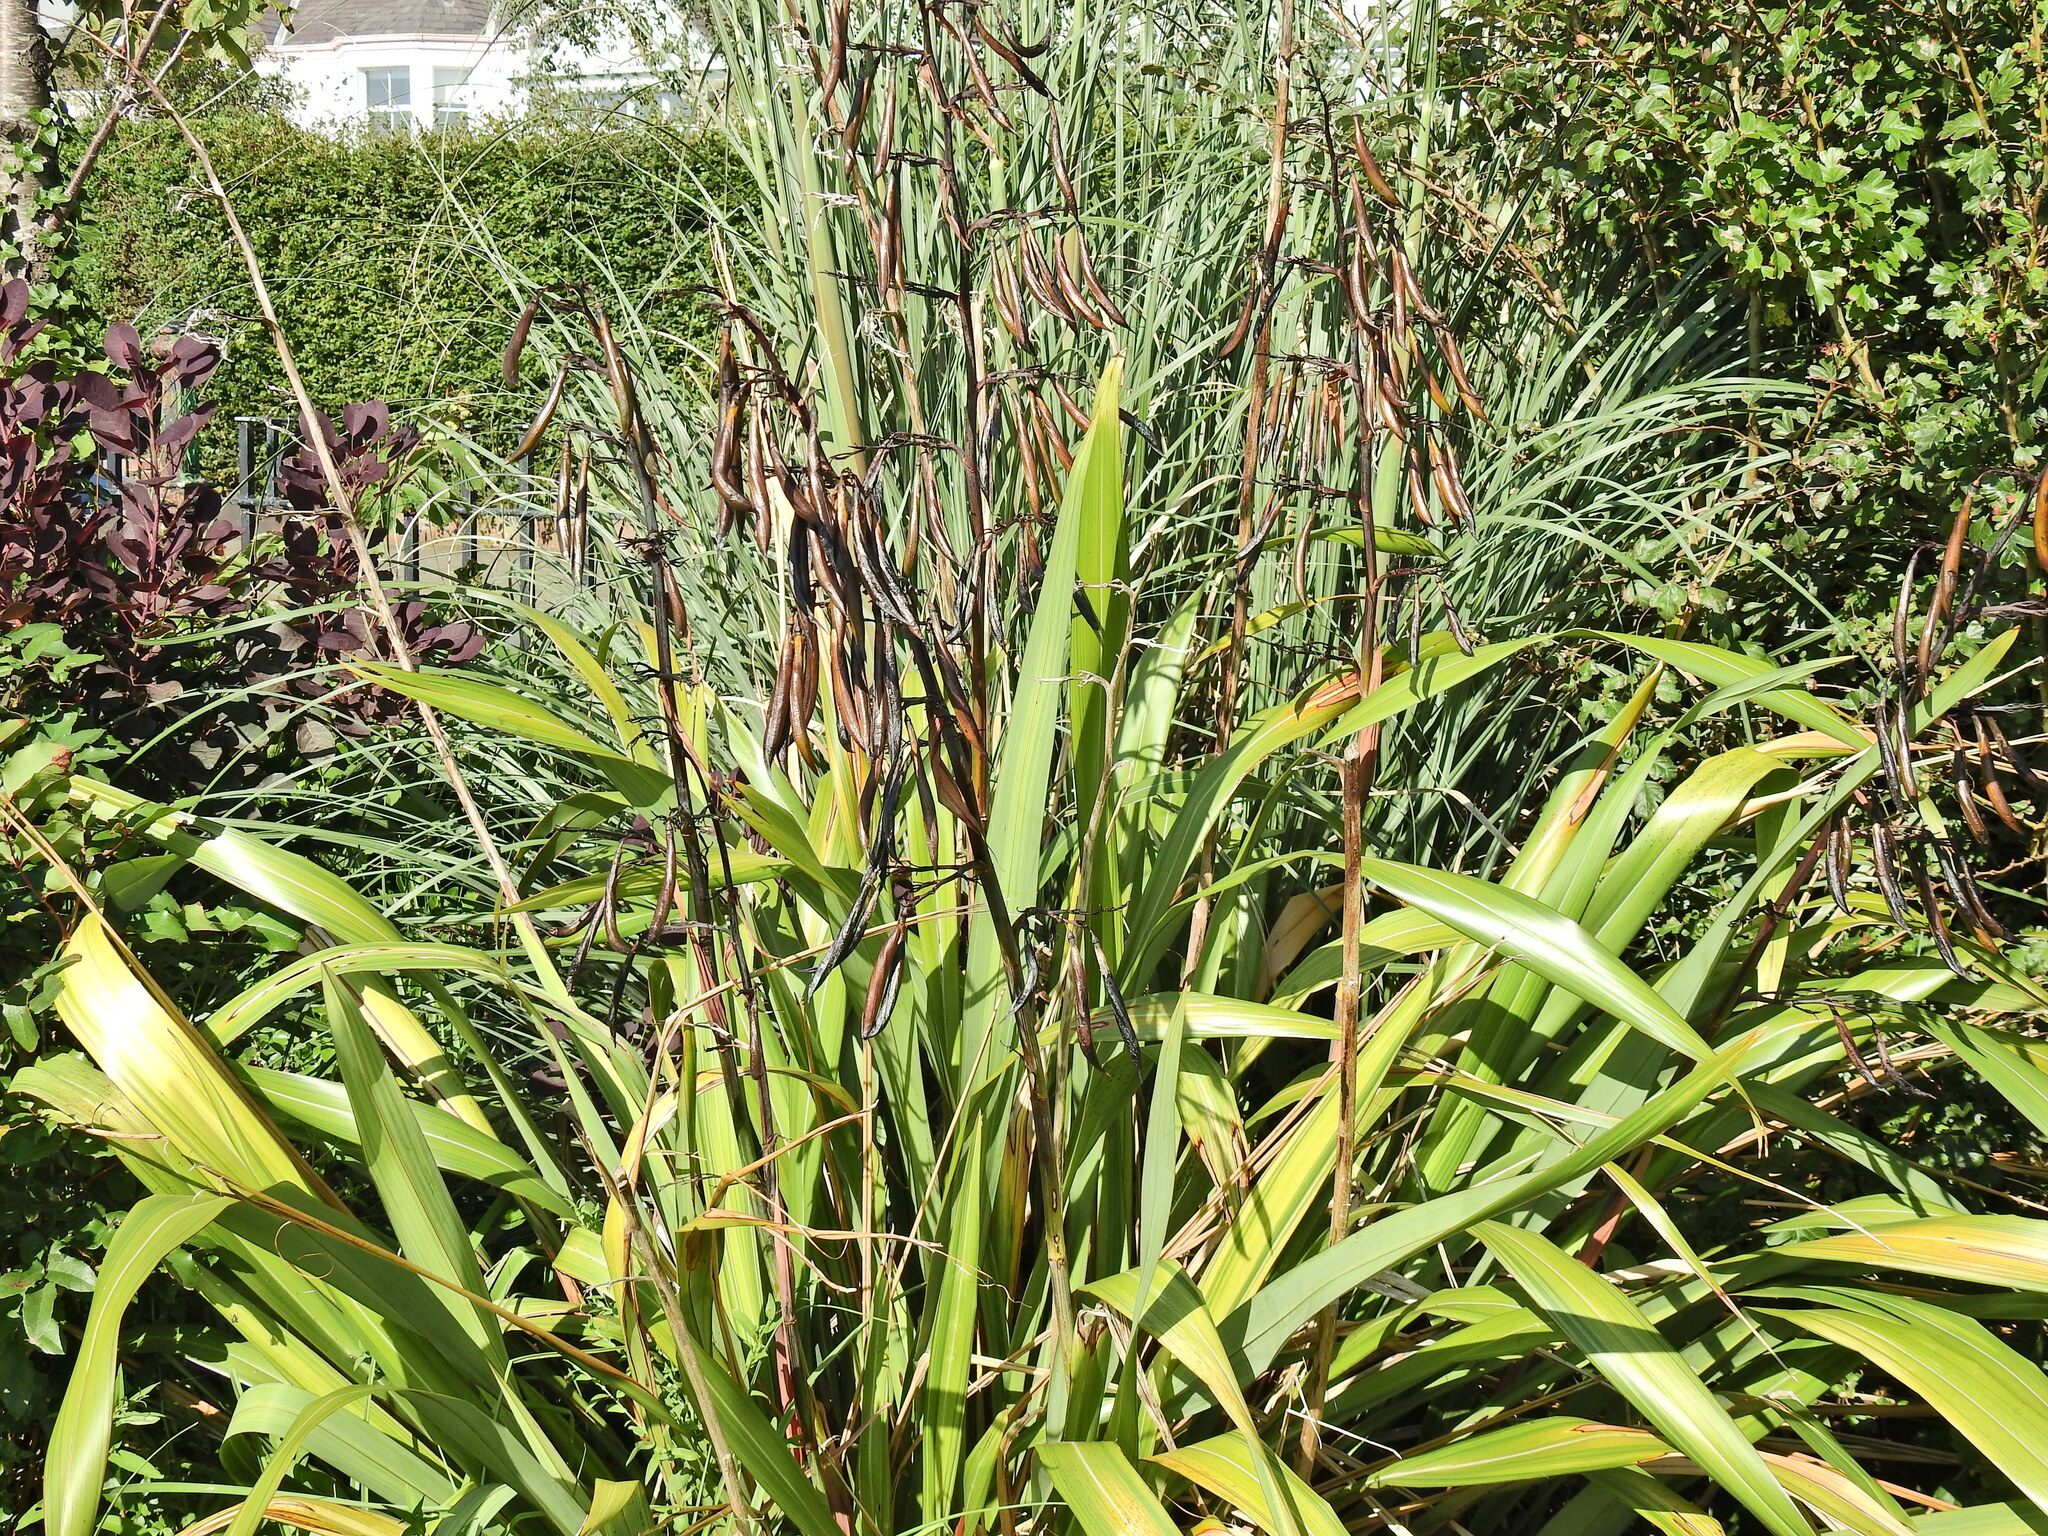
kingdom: Plantae
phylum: Tracheophyta
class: Liliopsida
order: Asparagales
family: Asphodelaceae
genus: Phormium
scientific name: Phormium tenax
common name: New zealand flax
